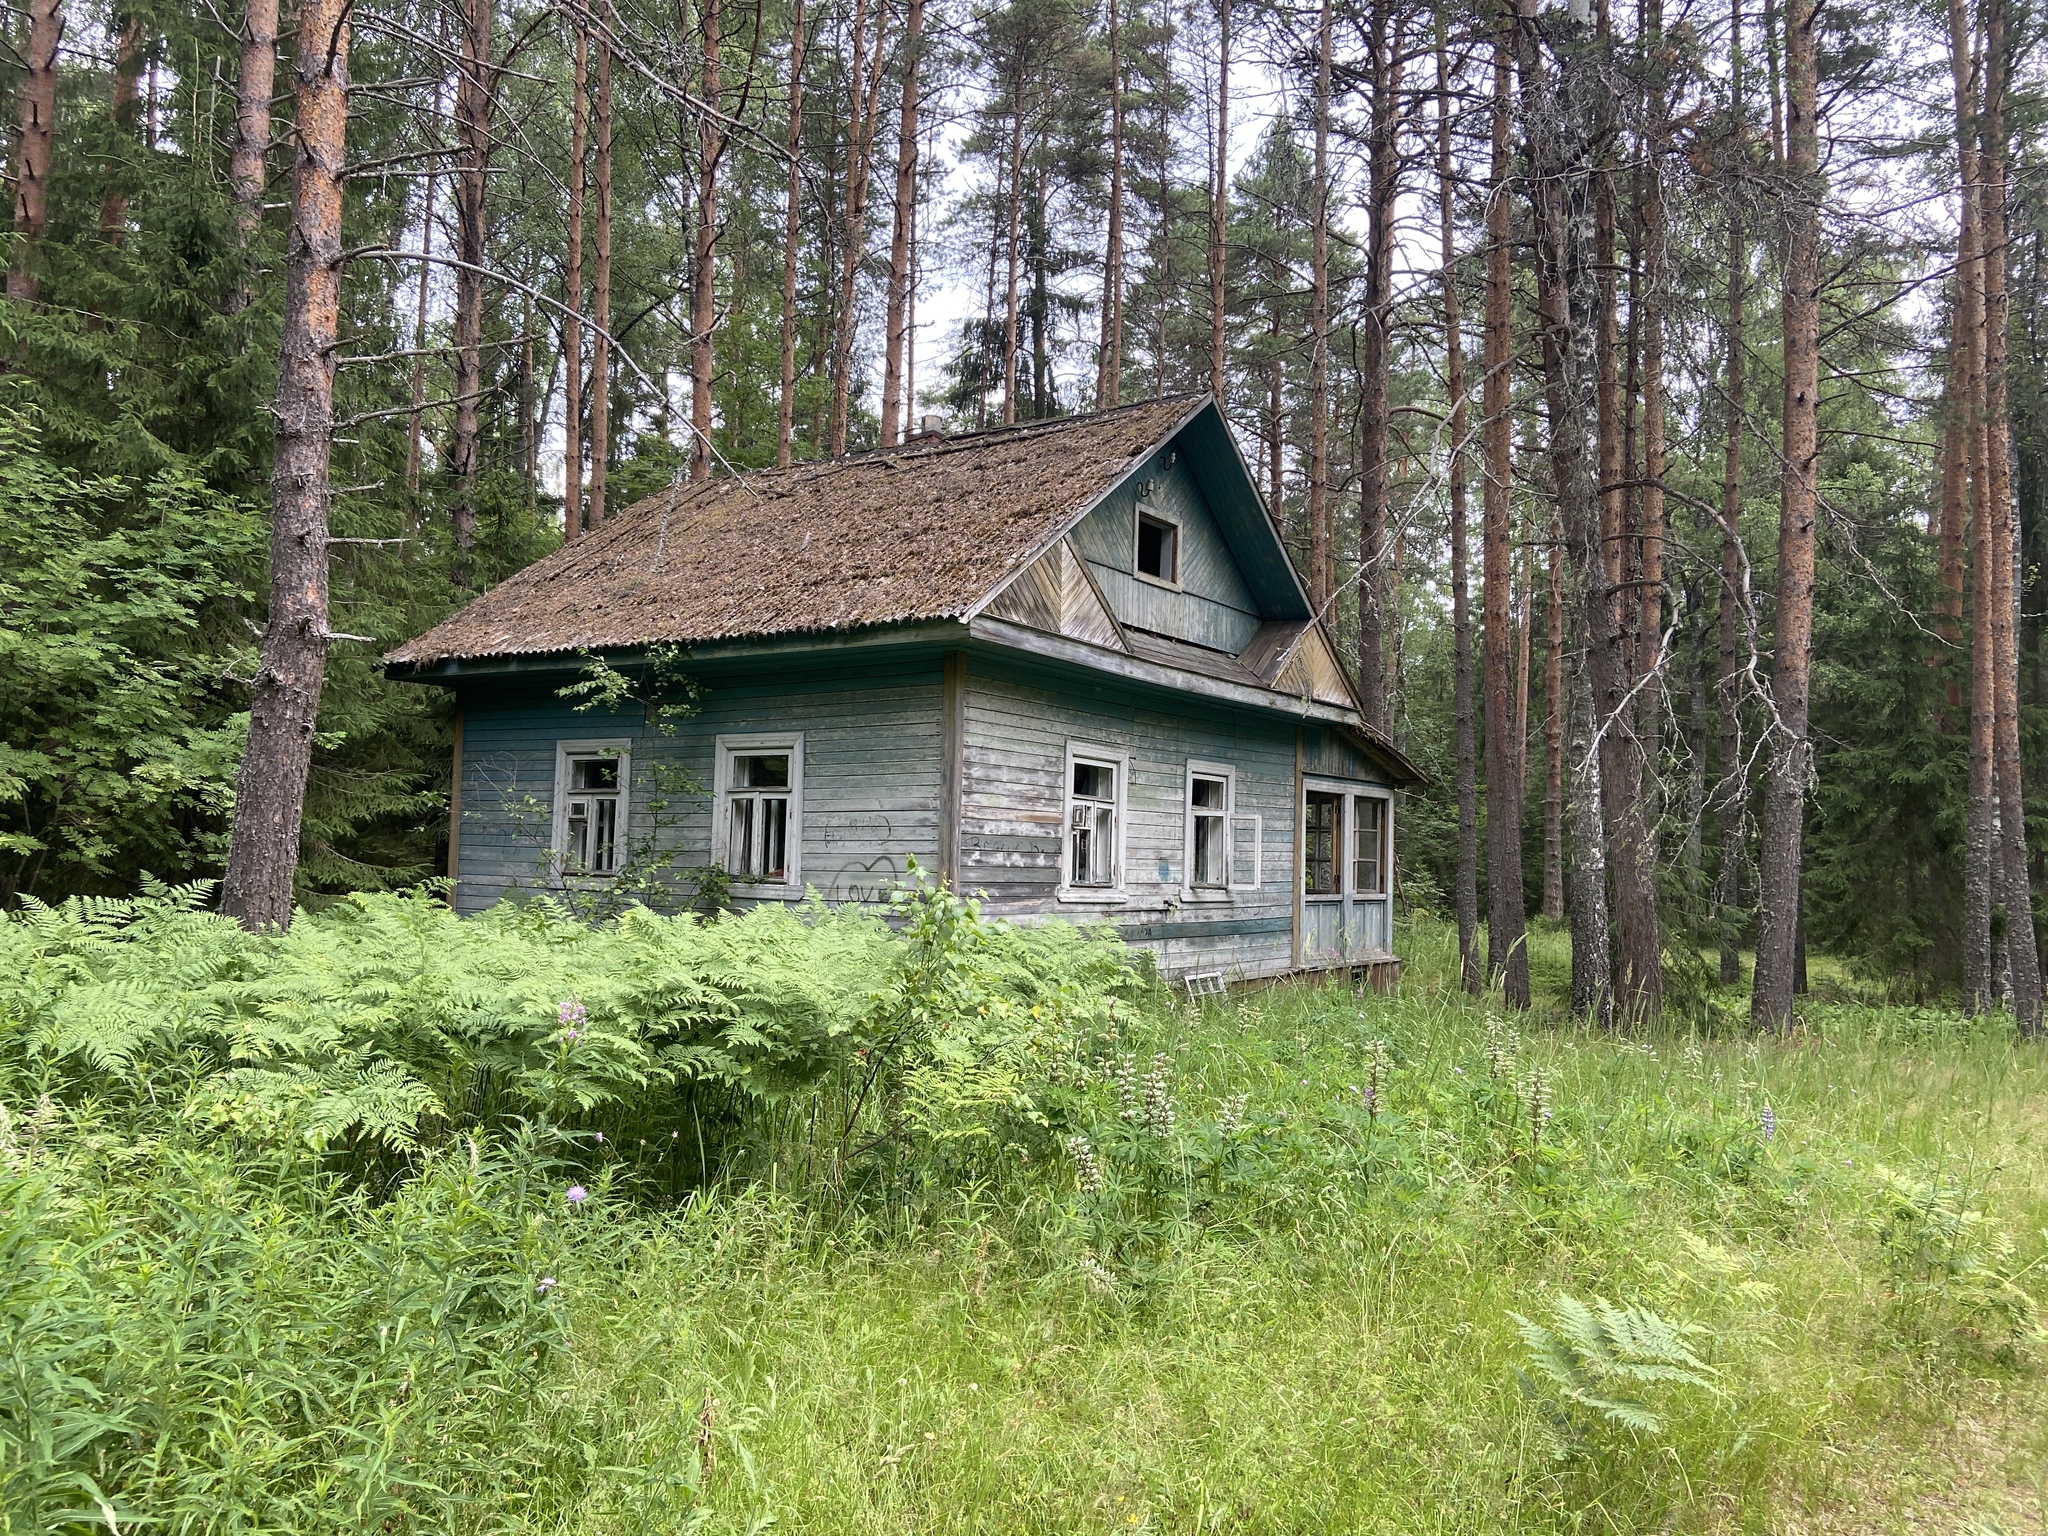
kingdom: Plantae
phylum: Tracheophyta
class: Pinopsida
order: Pinales
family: Pinaceae
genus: Pinus
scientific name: Pinus sylvestris
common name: Scots pine
